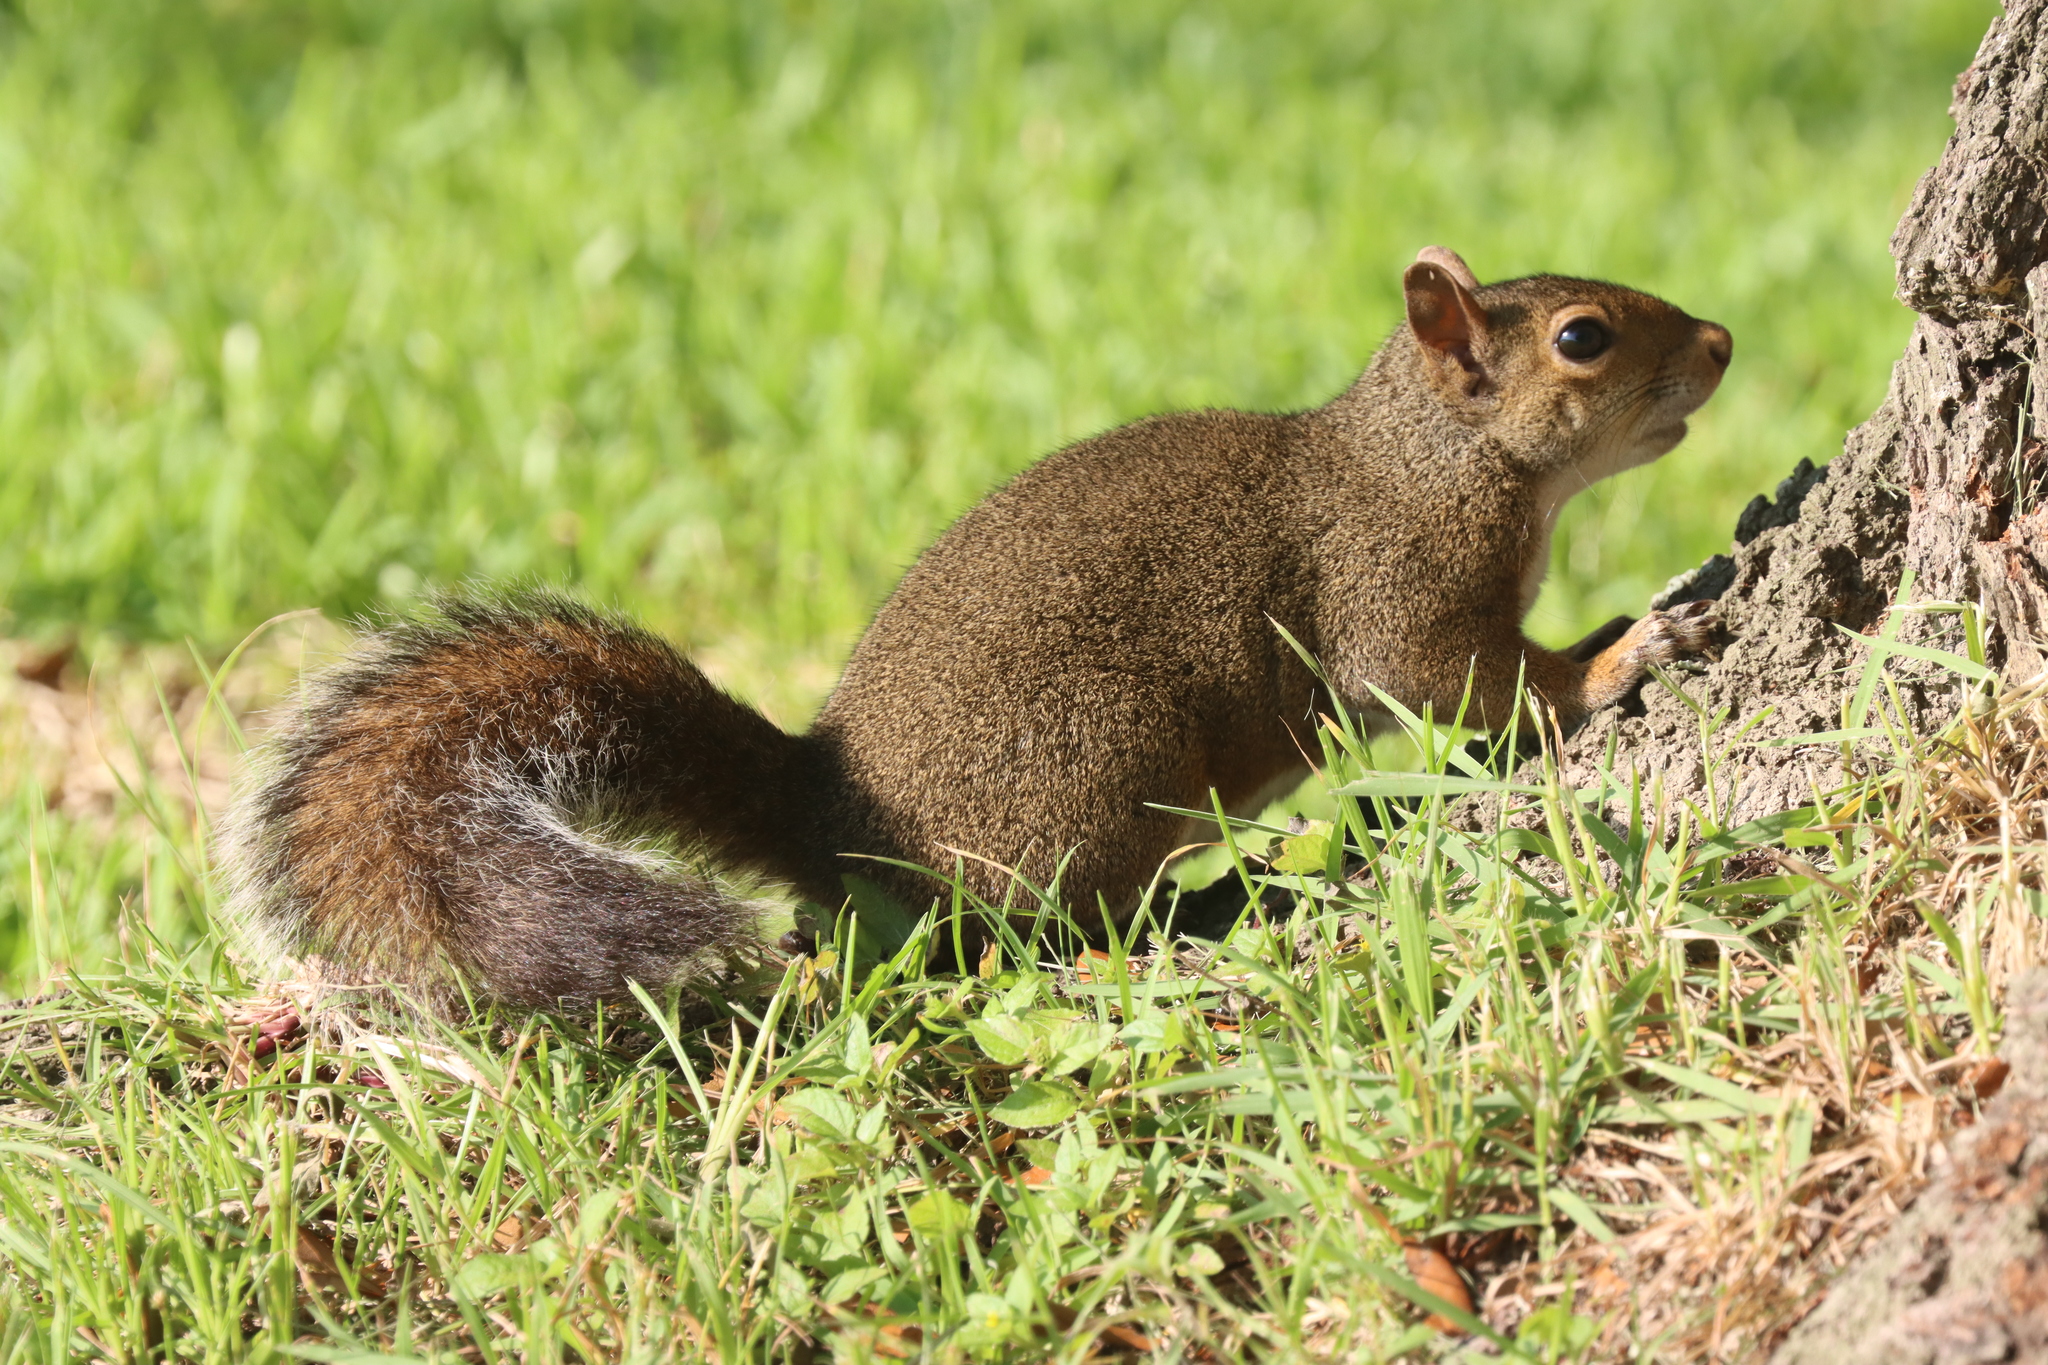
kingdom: Animalia
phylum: Chordata
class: Mammalia
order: Rodentia
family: Sciuridae
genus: Sciurus
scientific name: Sciurus carolinensis
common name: Eastern gray squirrel
